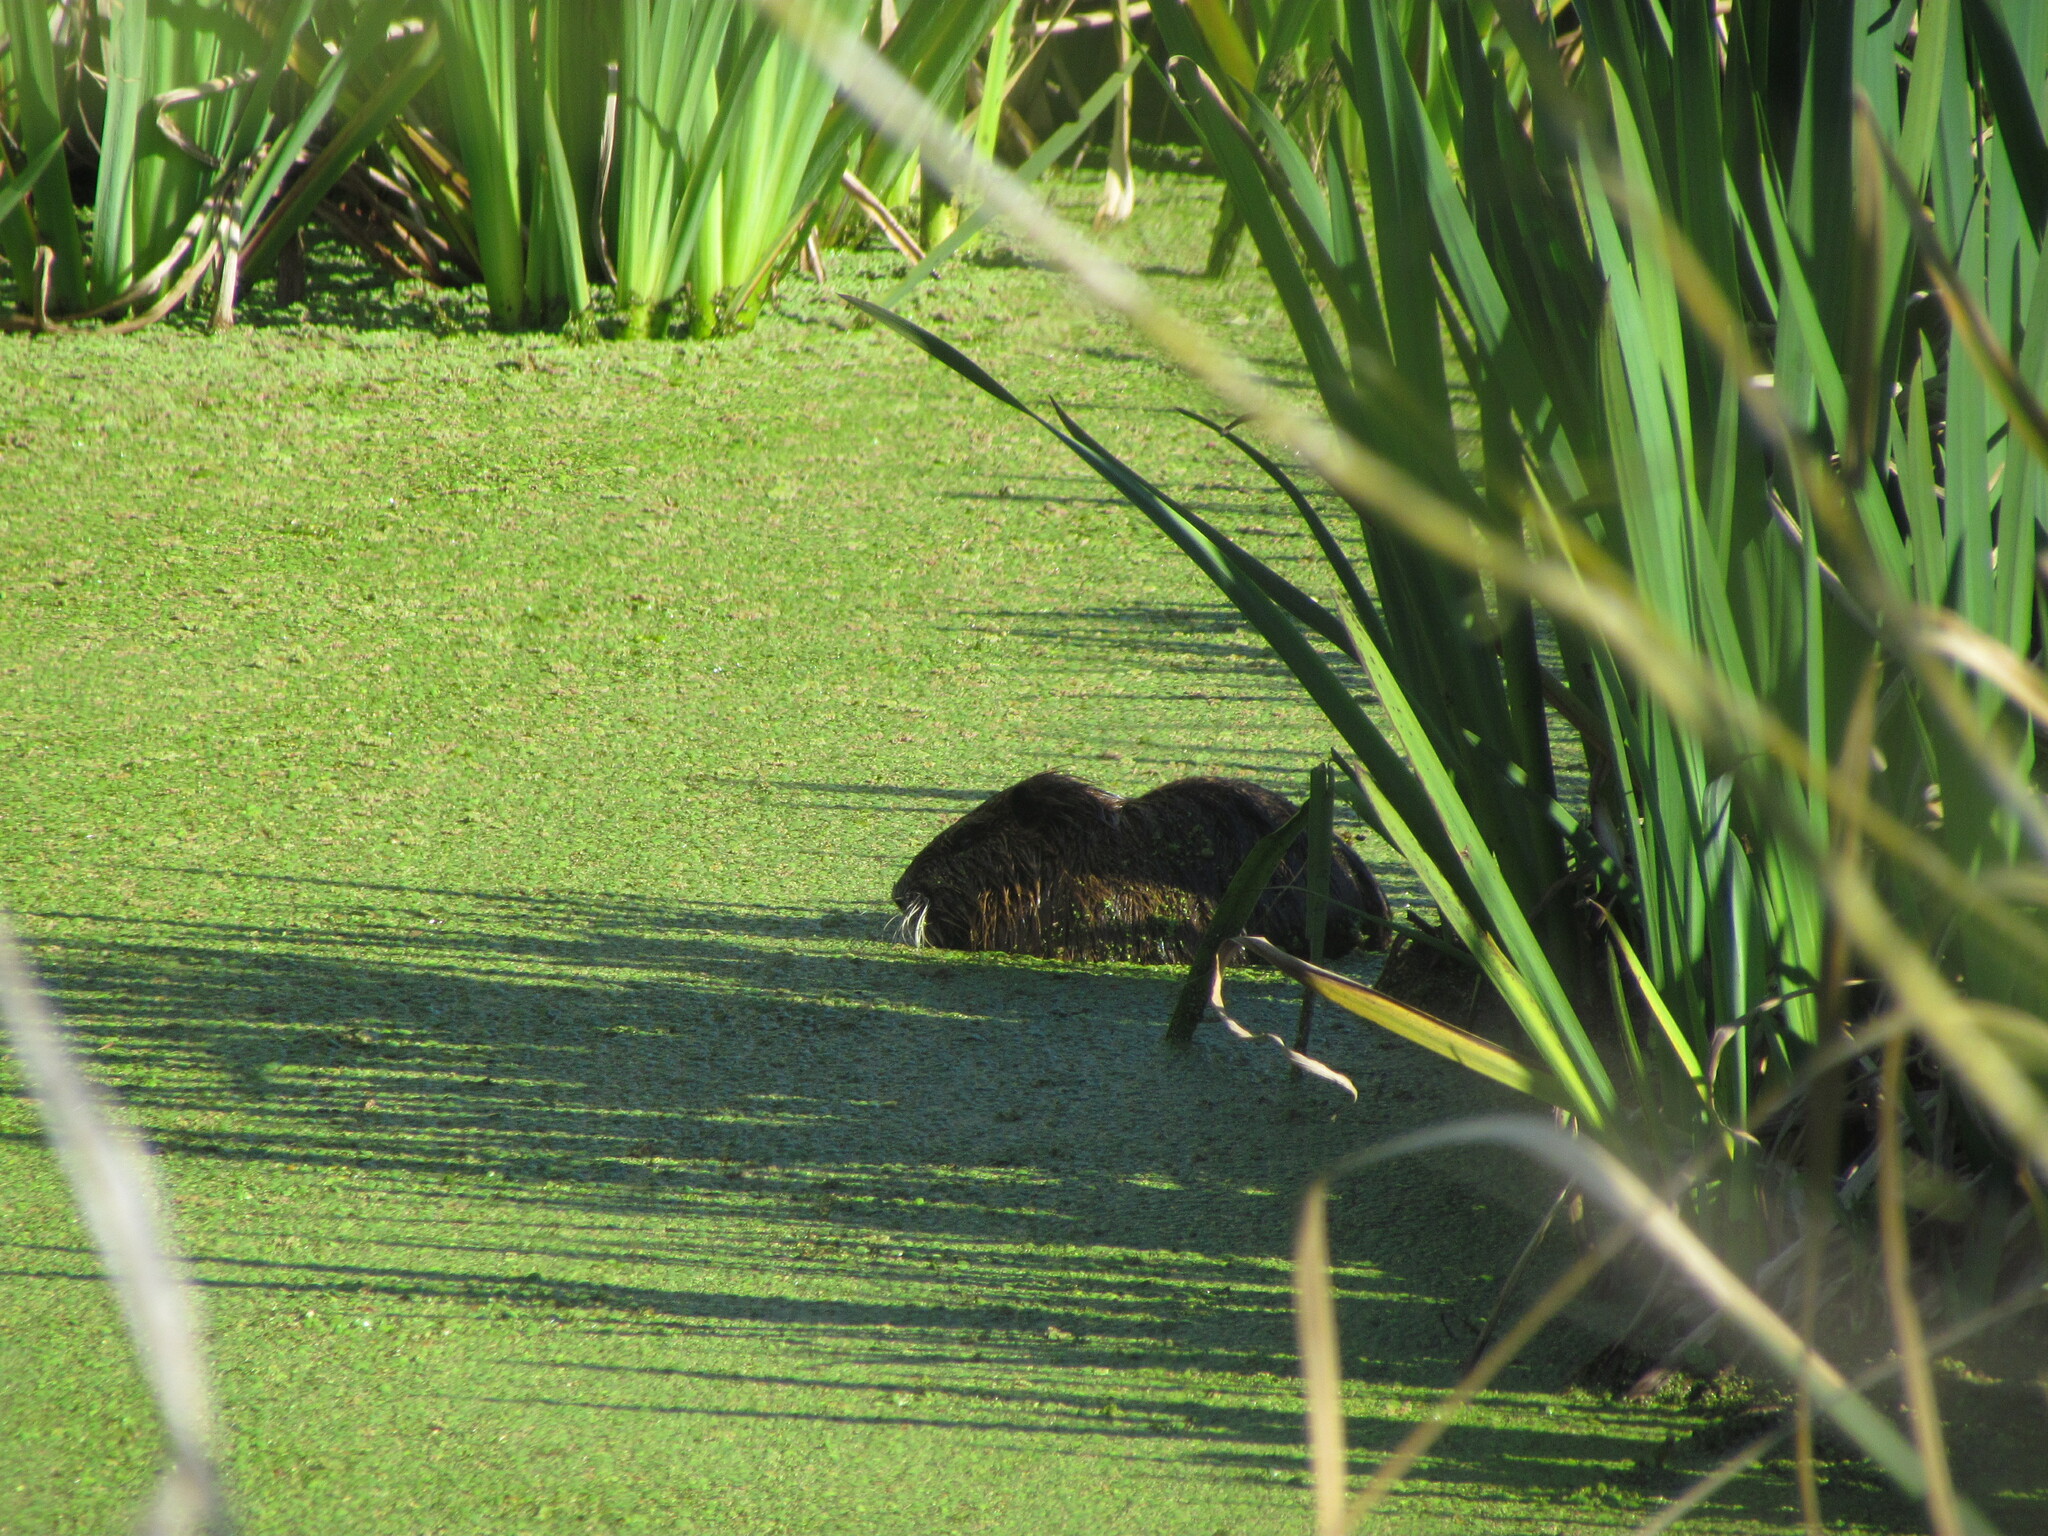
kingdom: Animalia
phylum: Chordata
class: Mammalia
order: Rodentia
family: Myocastoridae
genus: Myocastor
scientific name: Myocastor coypus
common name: Coypu
